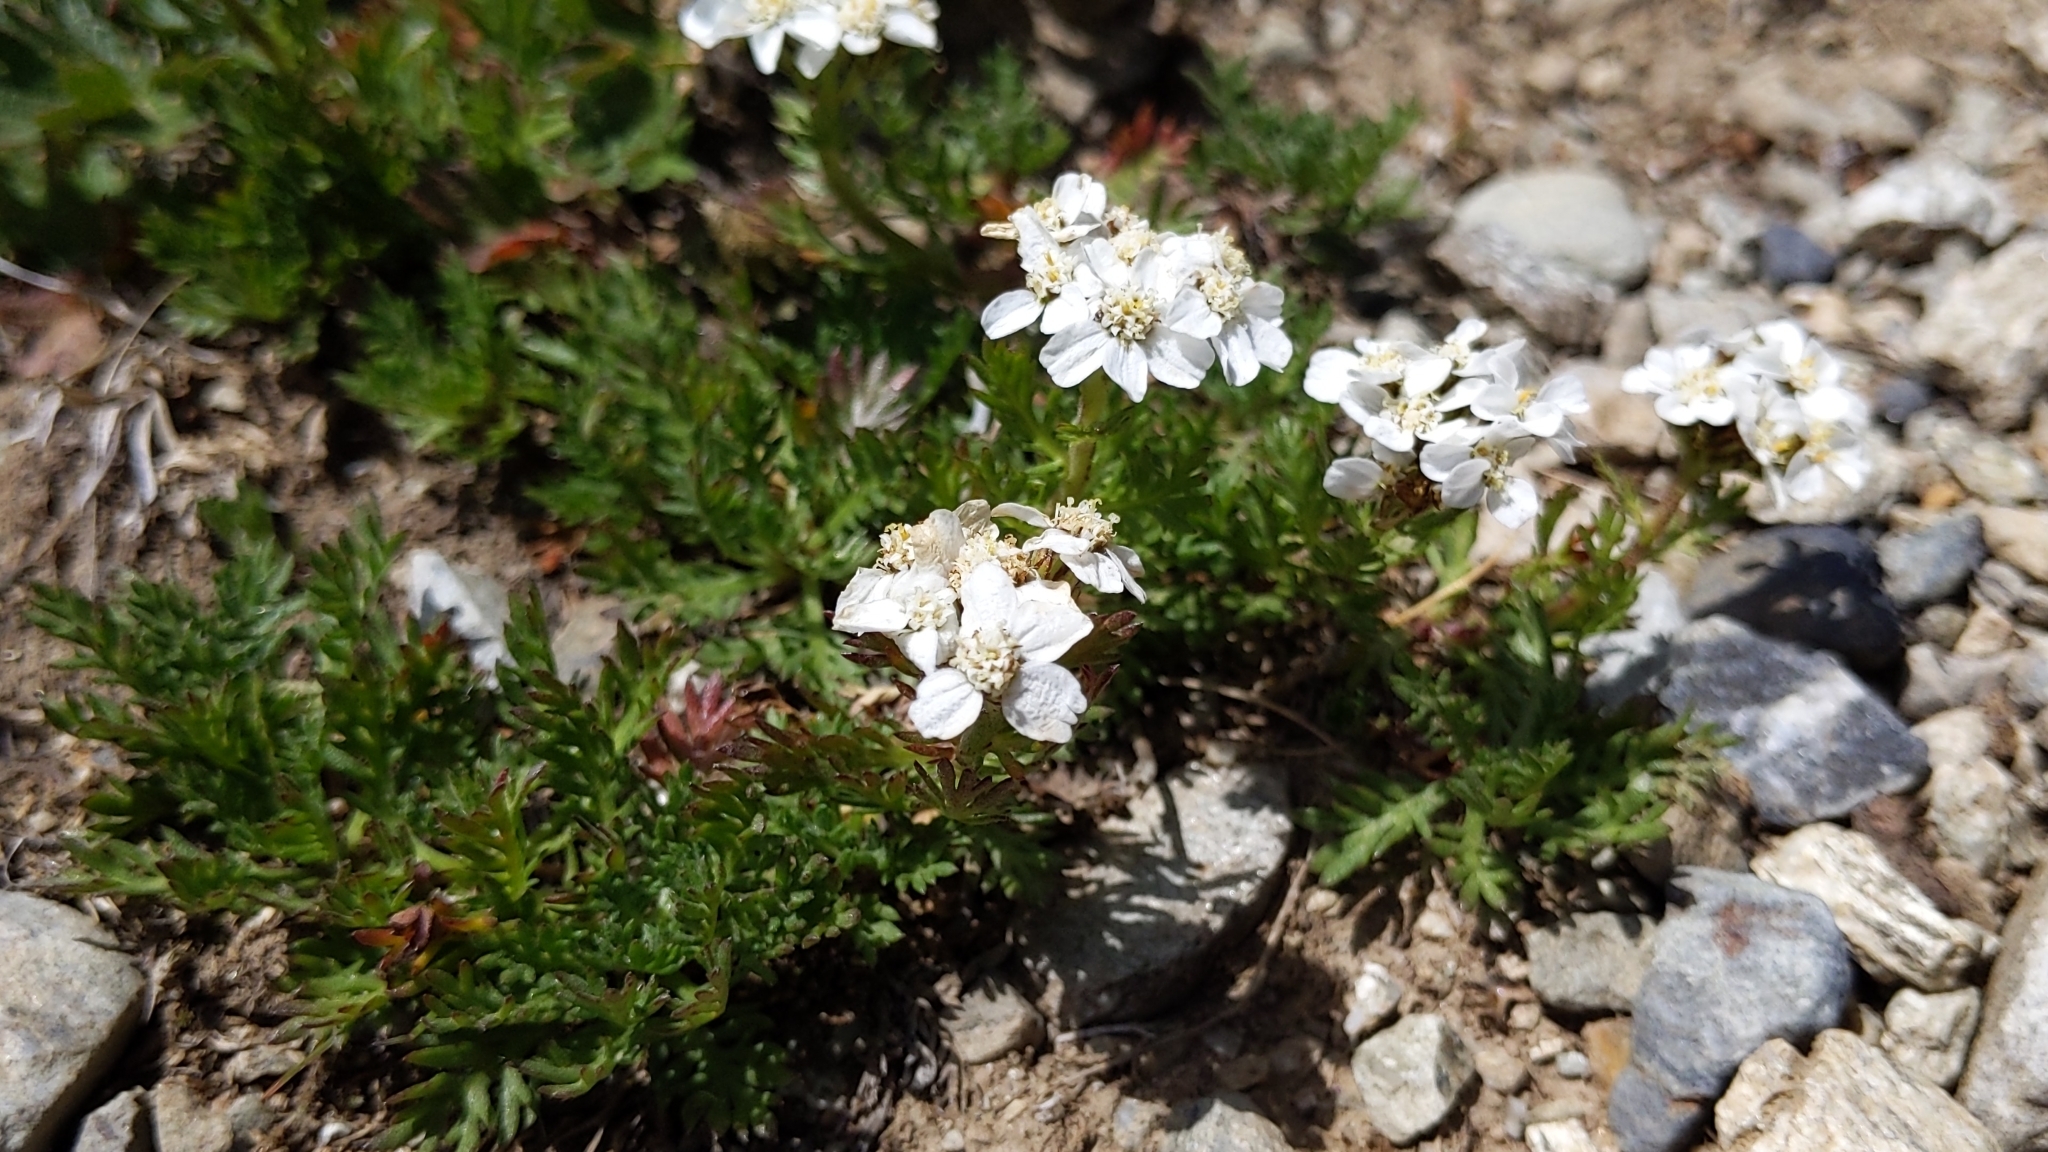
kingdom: Plantae
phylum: Tracheophyta
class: Magnoliopsida
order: Asterales
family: Asteraceae
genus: Achillea
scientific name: Achillea erba-rotta
